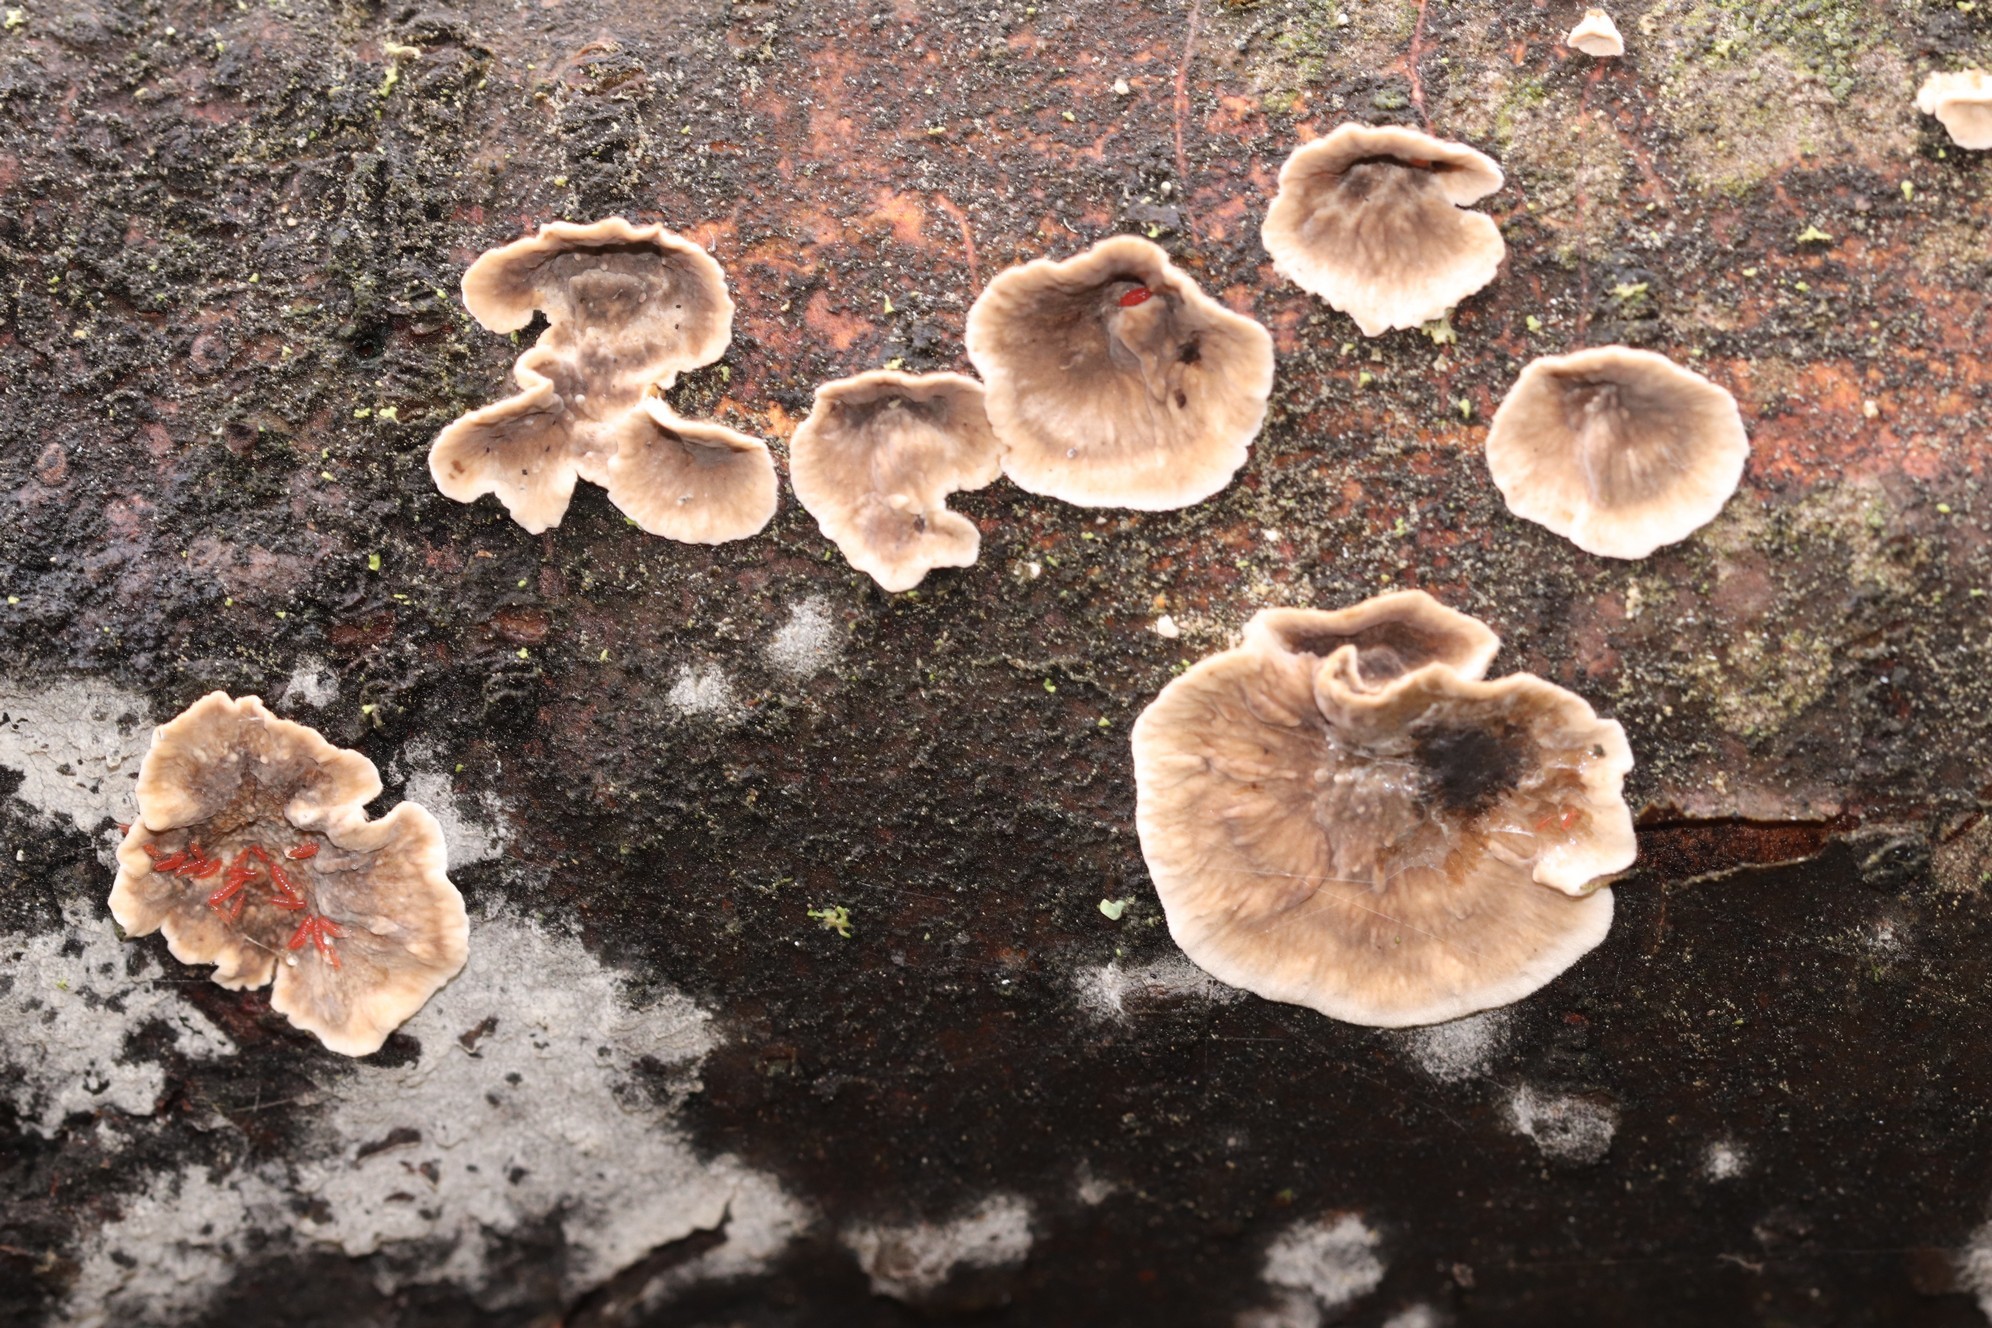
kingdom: Fungi
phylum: Basidiomycota
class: Agaricomycetes
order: Russulales
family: Stereaceae
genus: Stereum
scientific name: Stereum sanguinolentum
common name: Bleeding conifer crust
